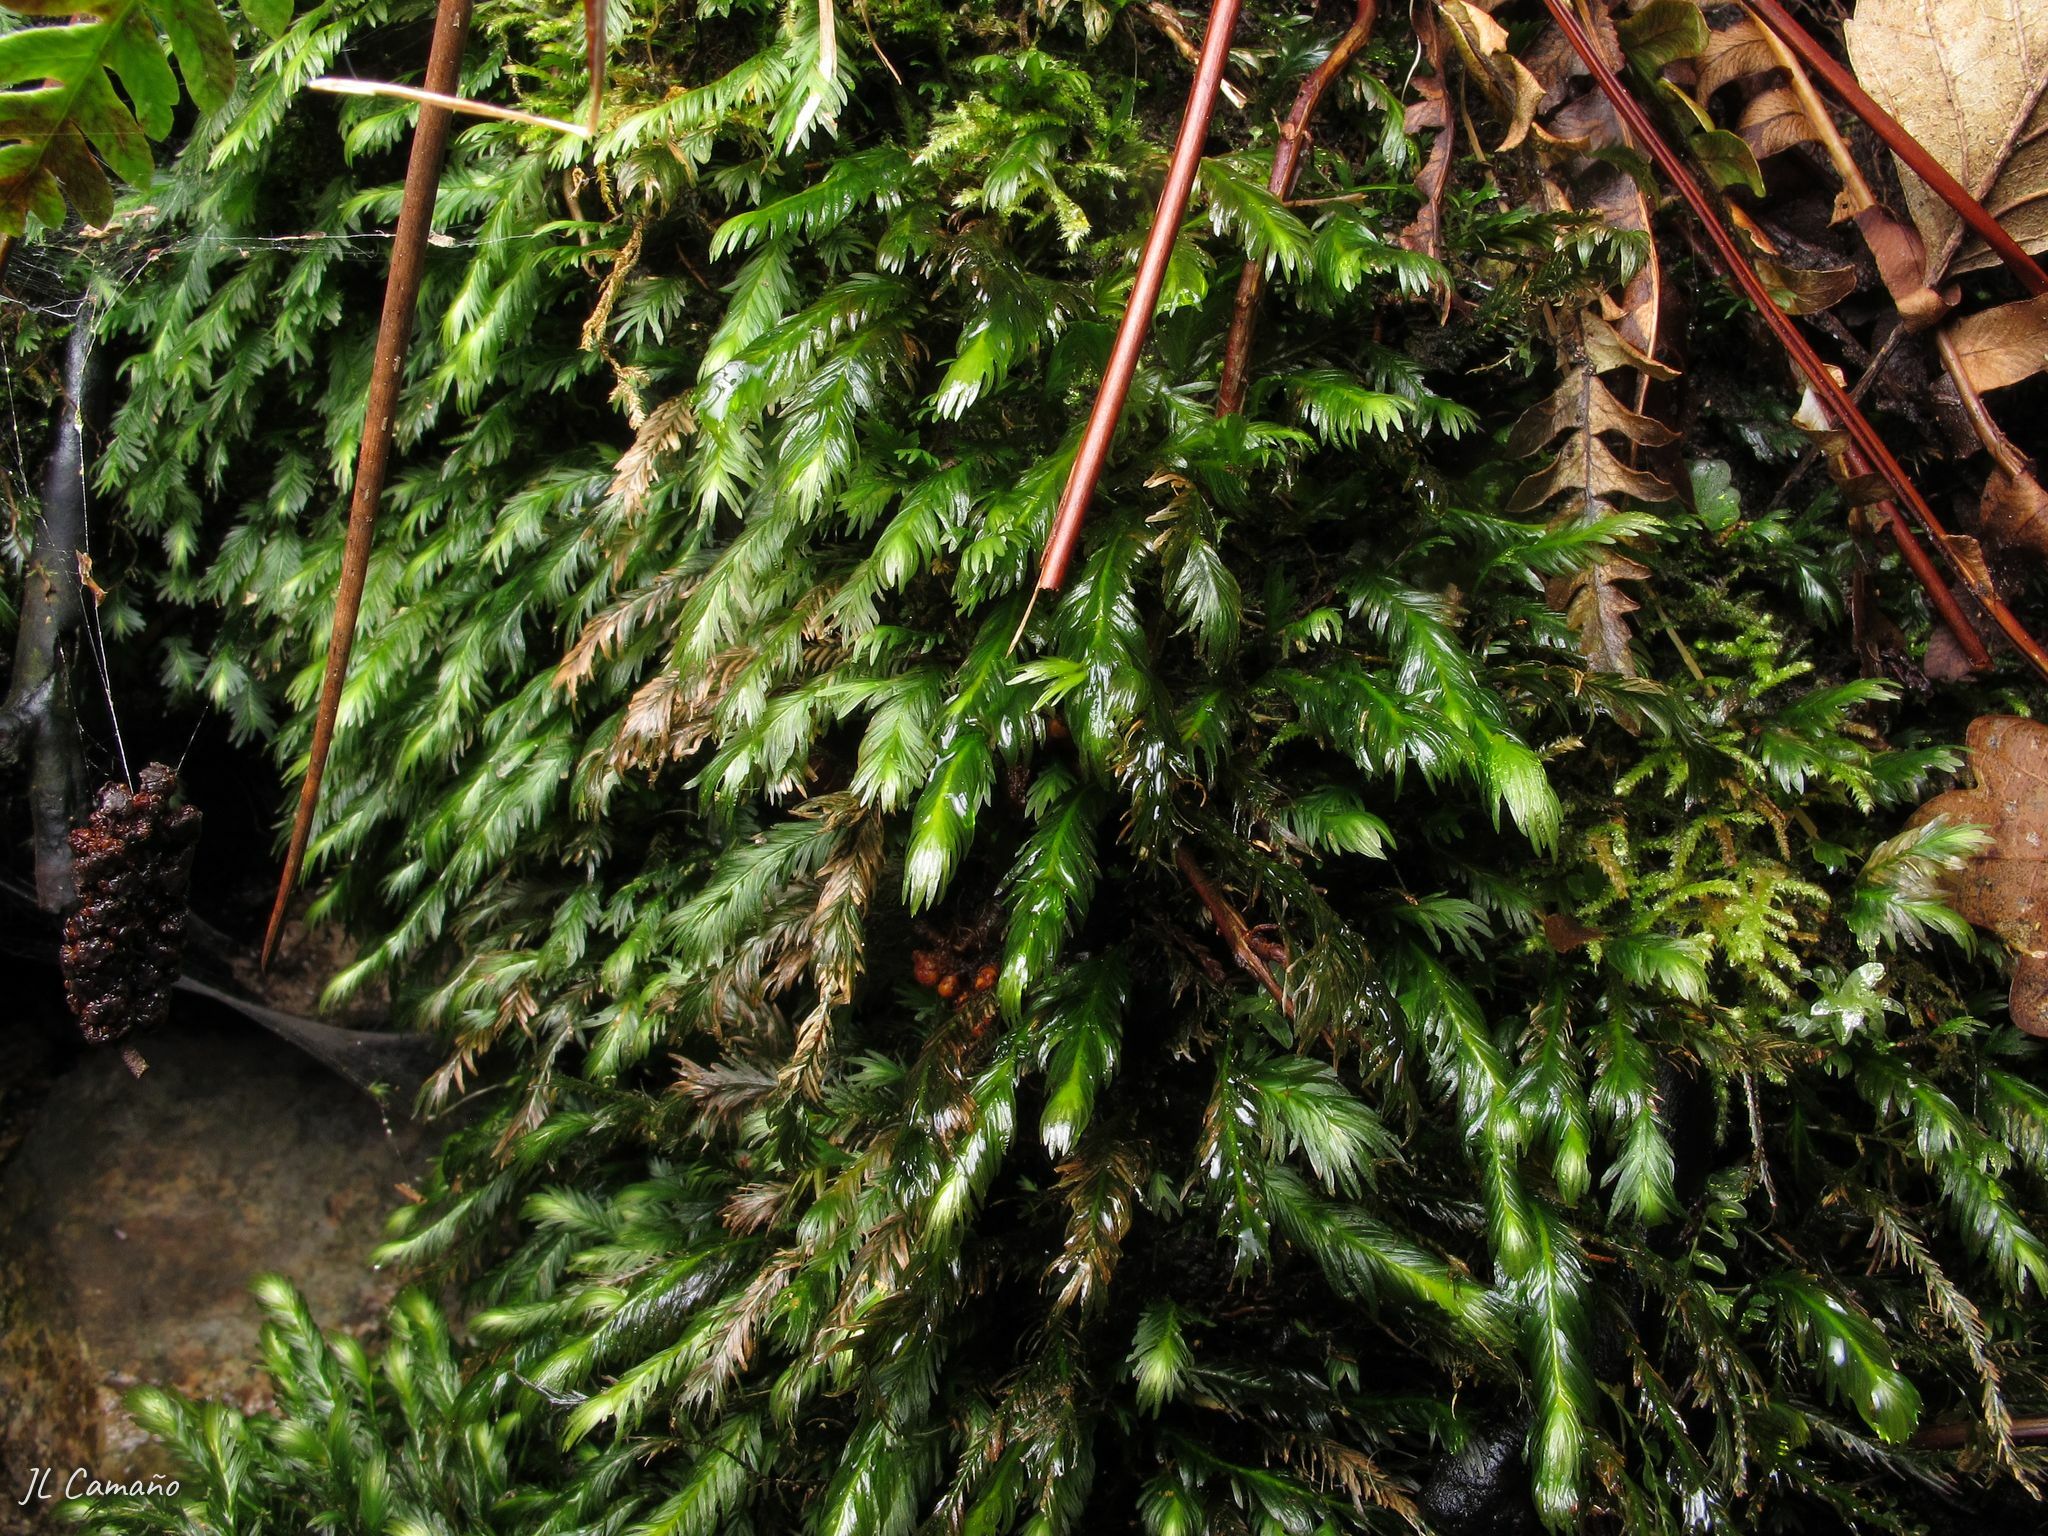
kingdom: Plantae
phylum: Bryophyta
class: Bryopsida
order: Dicranales
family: Fissidentaceae
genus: Fissidens
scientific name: Fissidens polyphyllus
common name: Many-leaved pocket-moss
